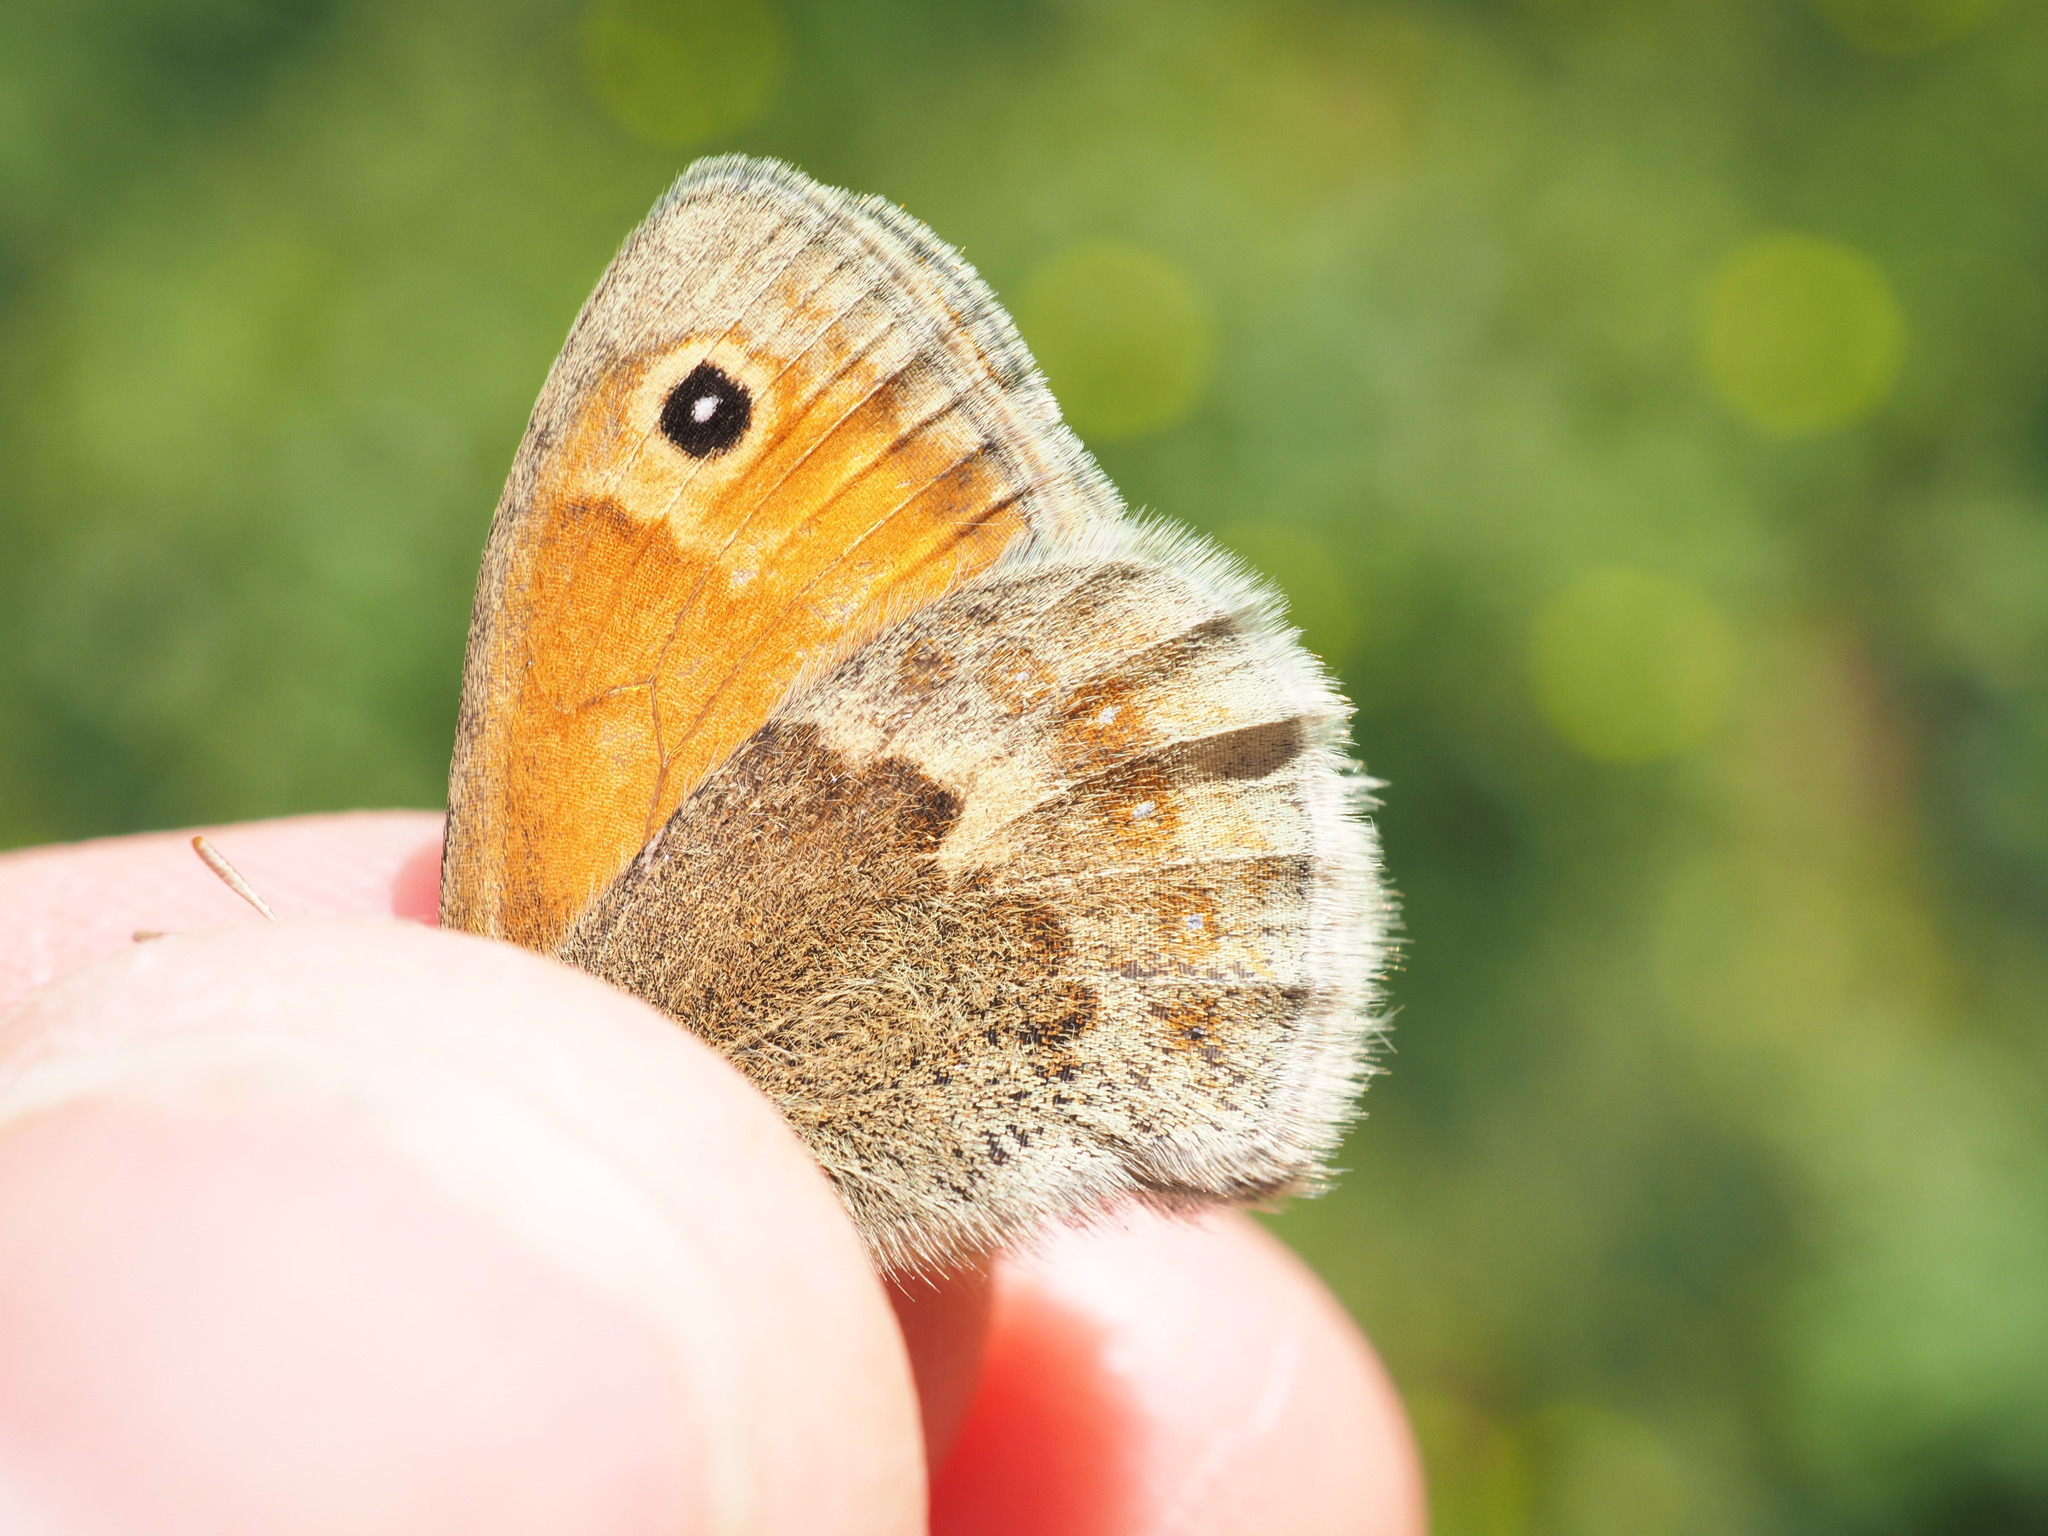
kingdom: Animalia
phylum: Arthropoda
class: Insecta
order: Lepidoptera
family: Nymphalidae
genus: Coenonympha
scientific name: Coenonympha pamphilus
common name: Small heath
